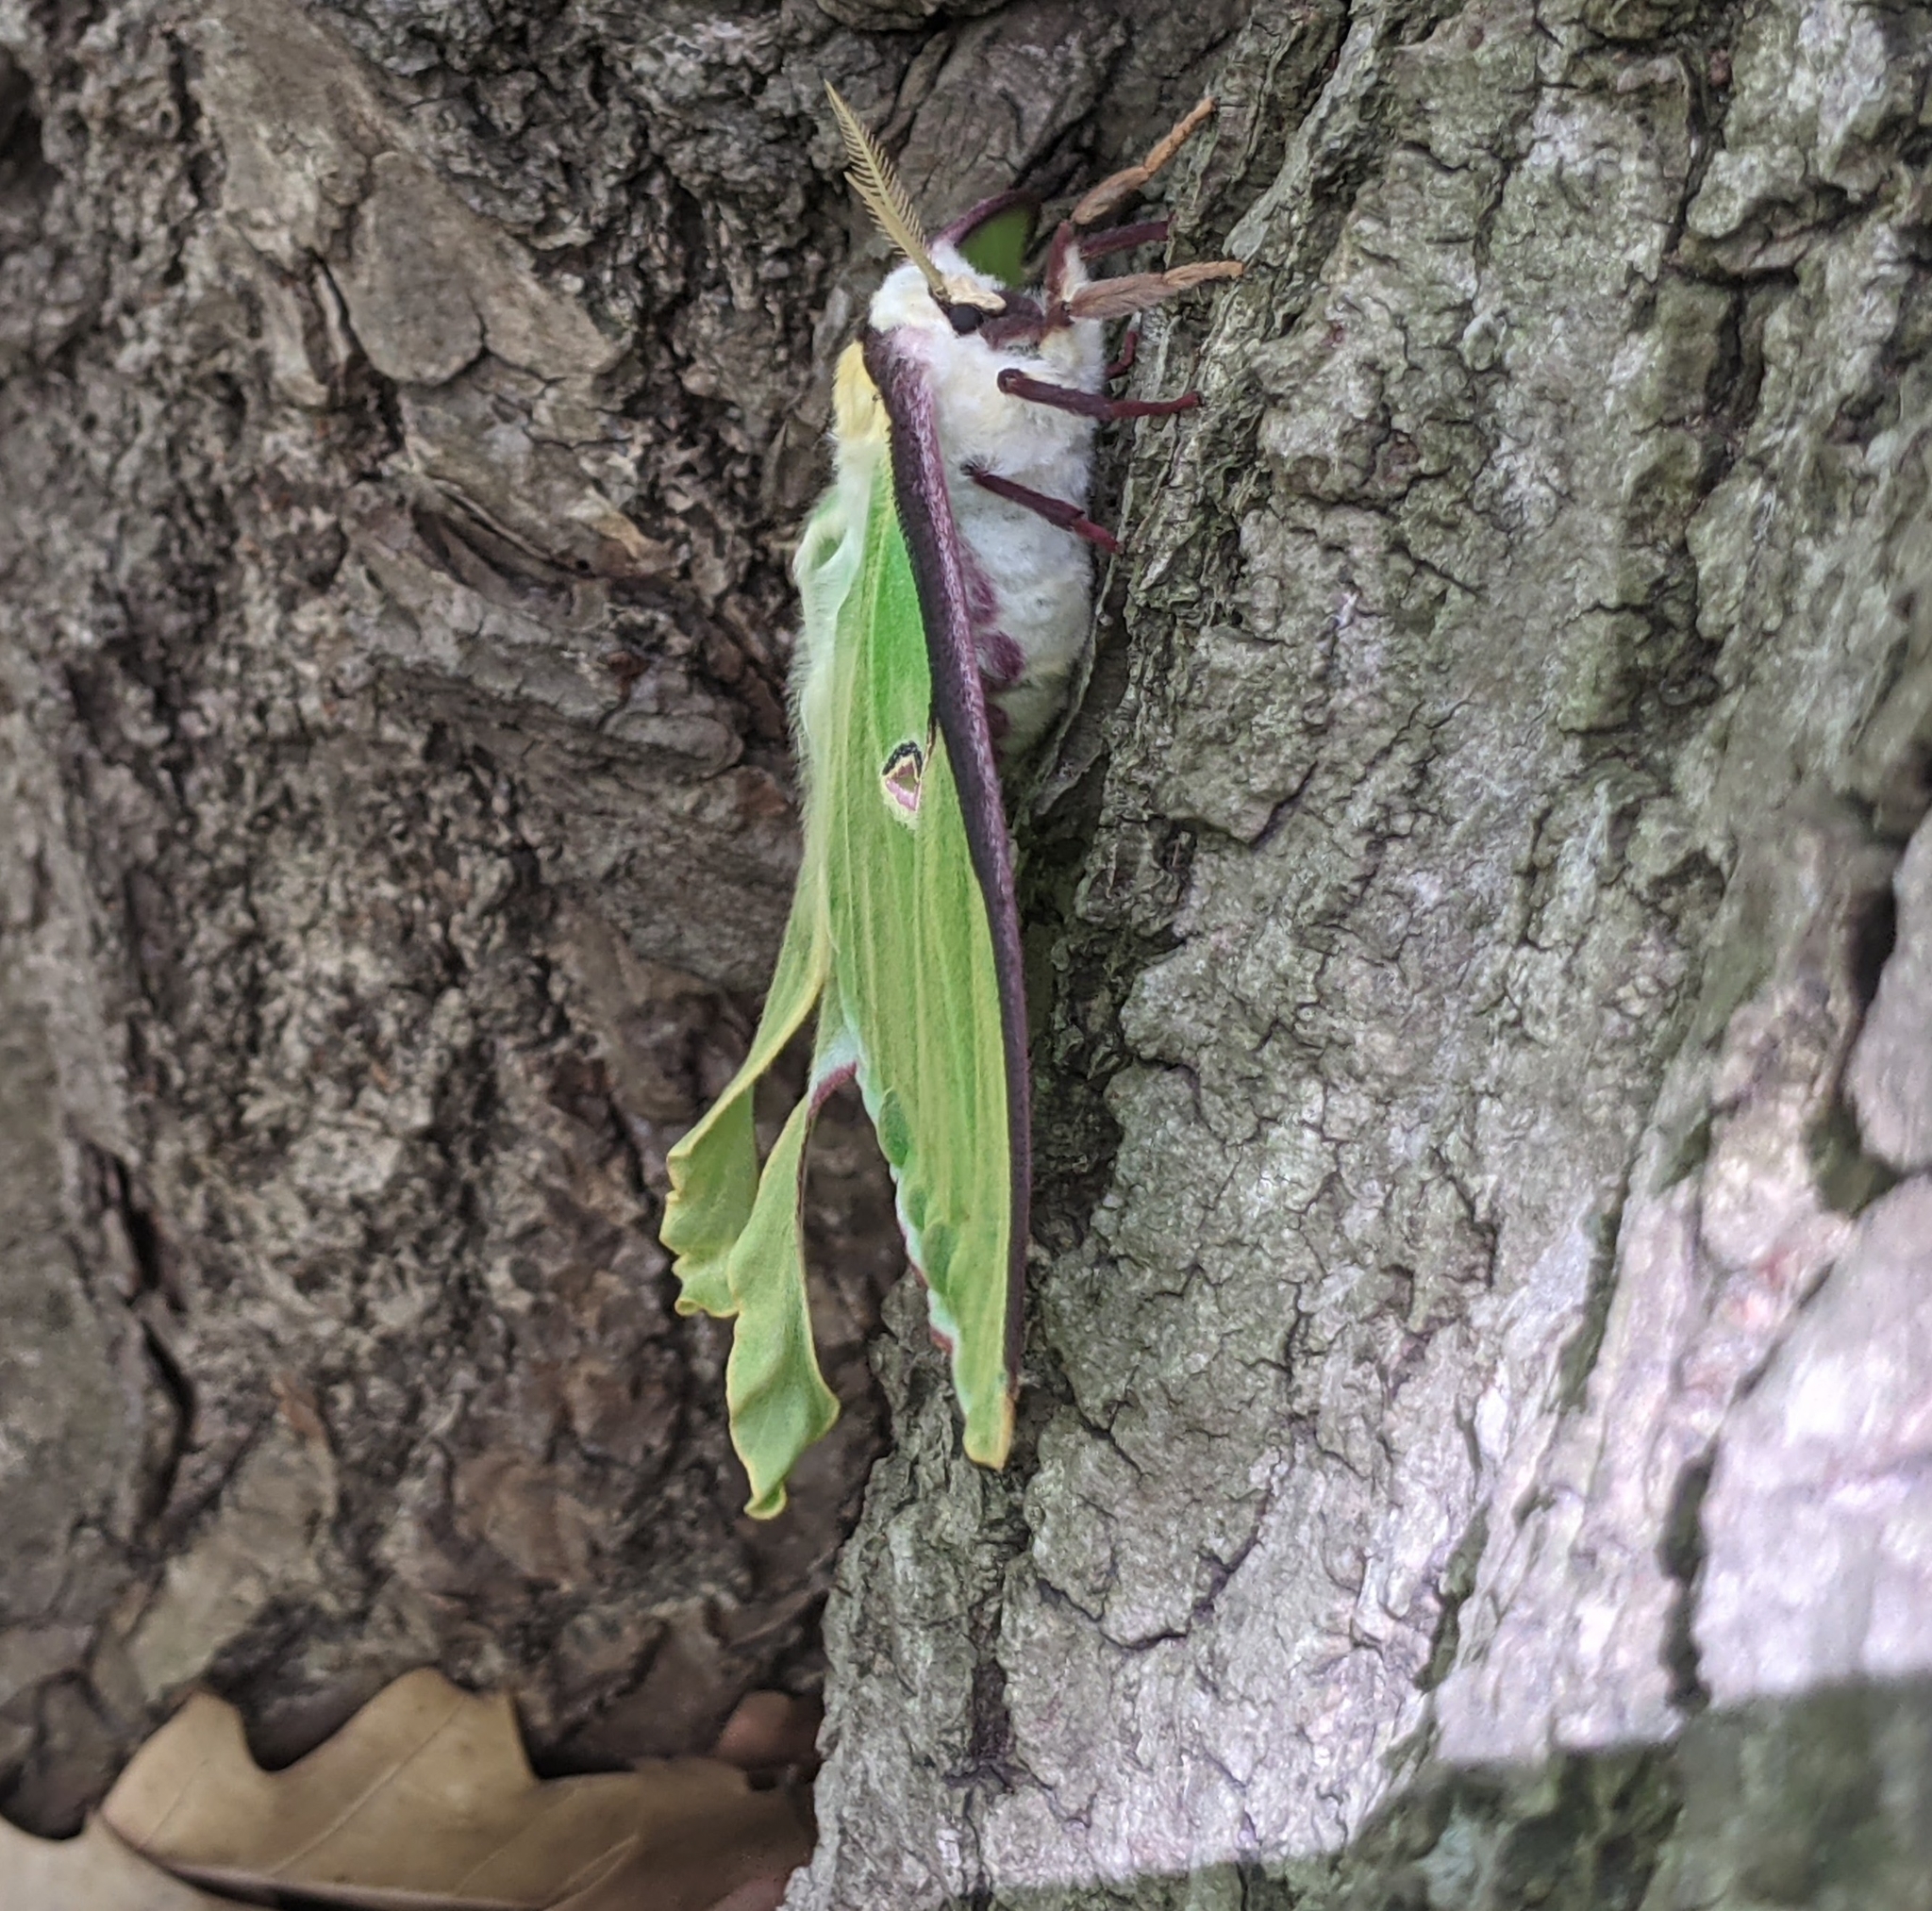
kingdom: Animalia
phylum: Arthropoda
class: Insecta
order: Lepidoptera
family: Saturniidae
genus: Actias
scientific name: Actias luna
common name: Luna moth
